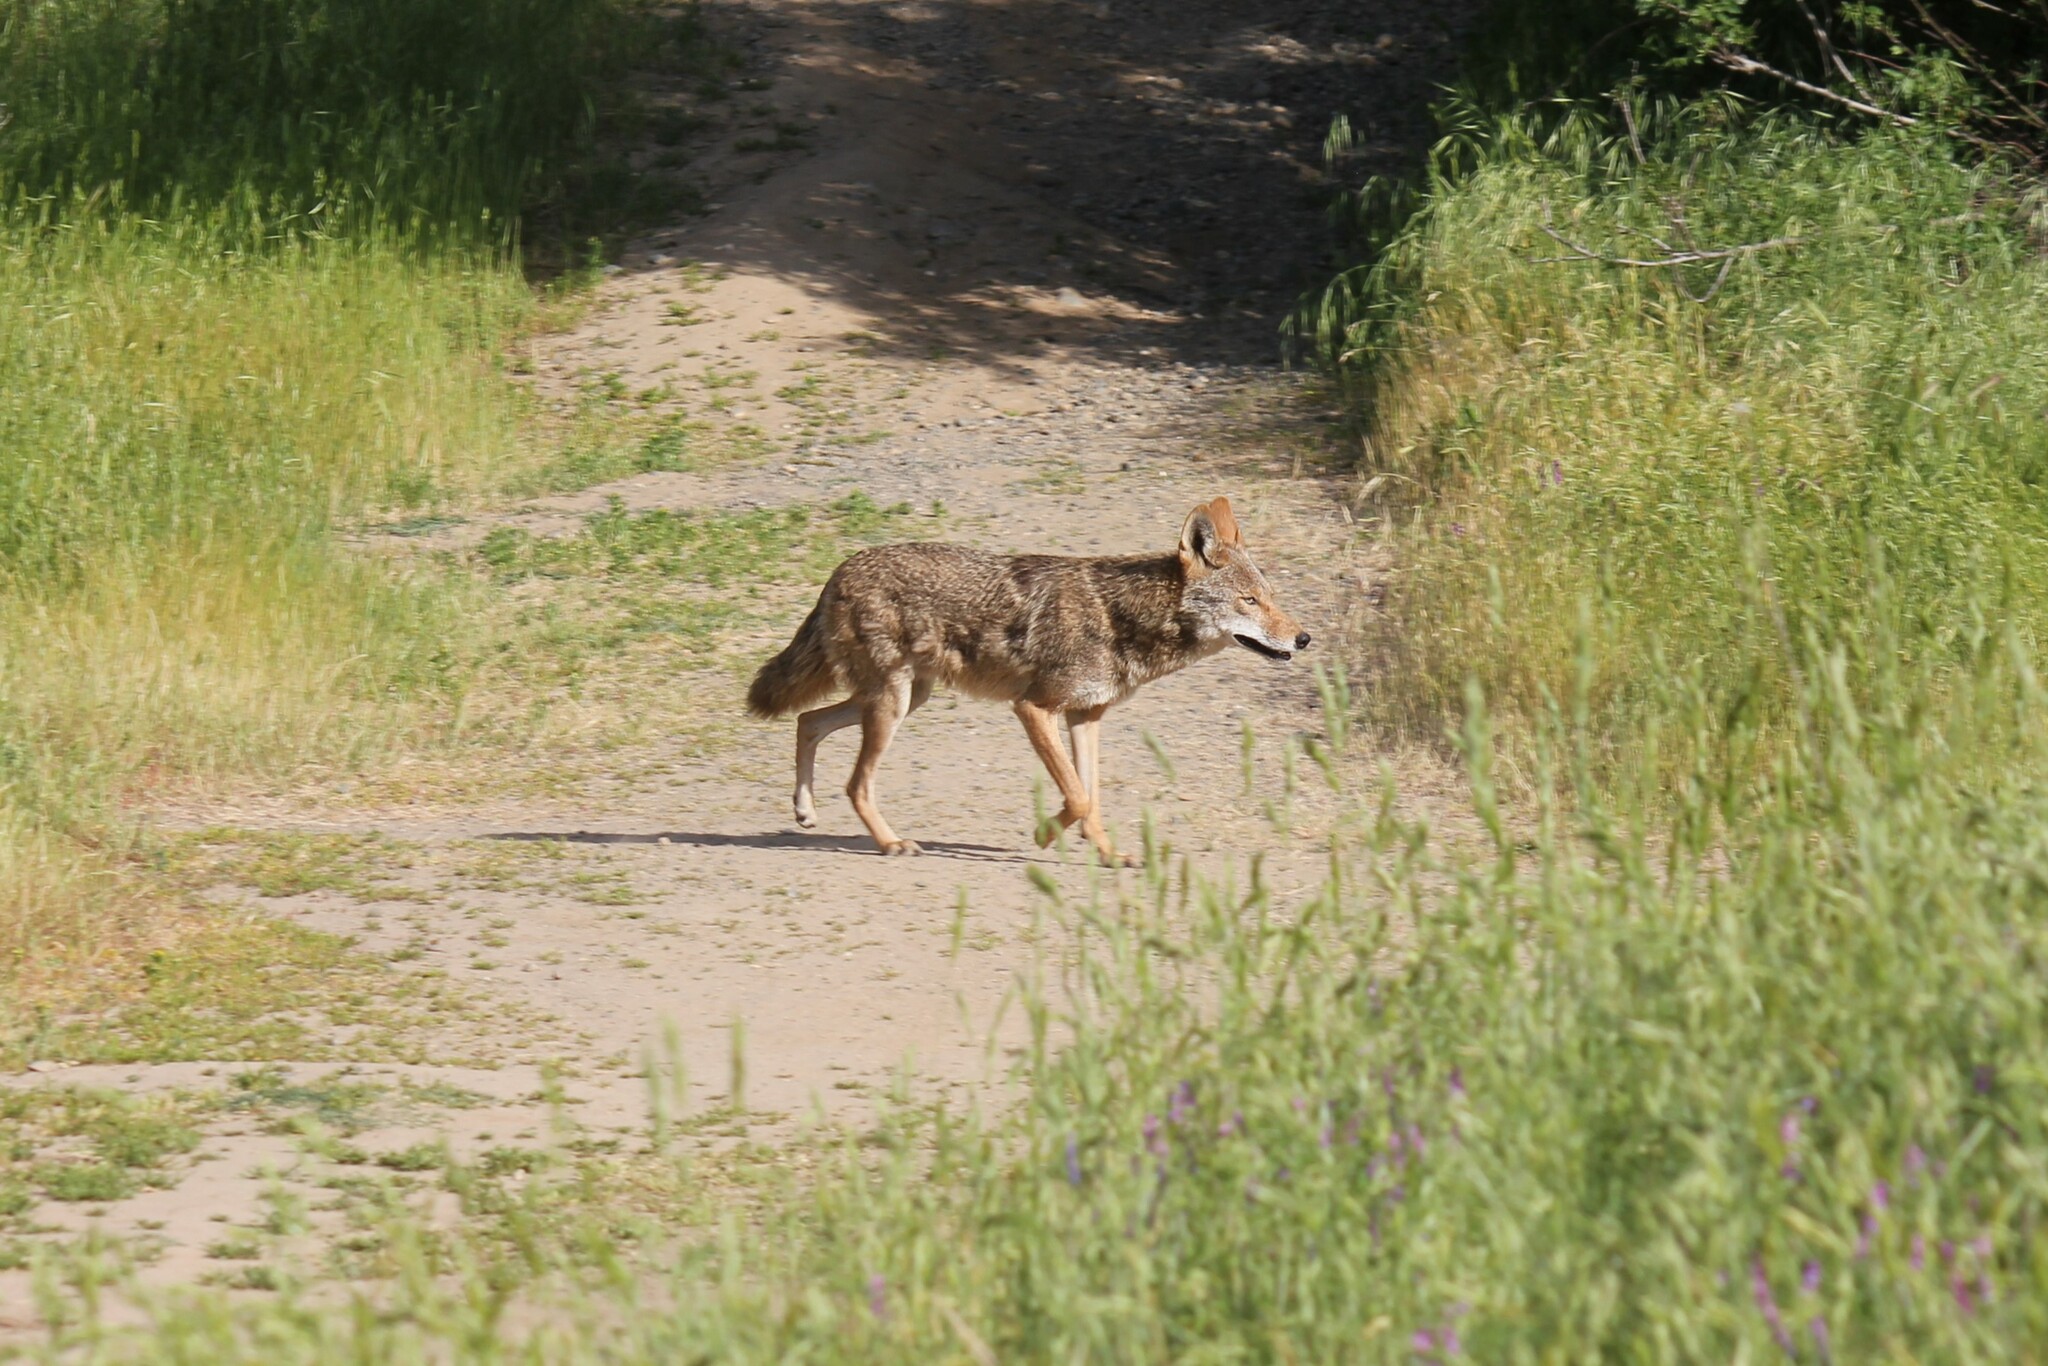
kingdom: Animalia
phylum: Chordata
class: Mammalia
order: Carnivora
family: Canidae
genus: Canis
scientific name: Canis latrans
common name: Coyote
